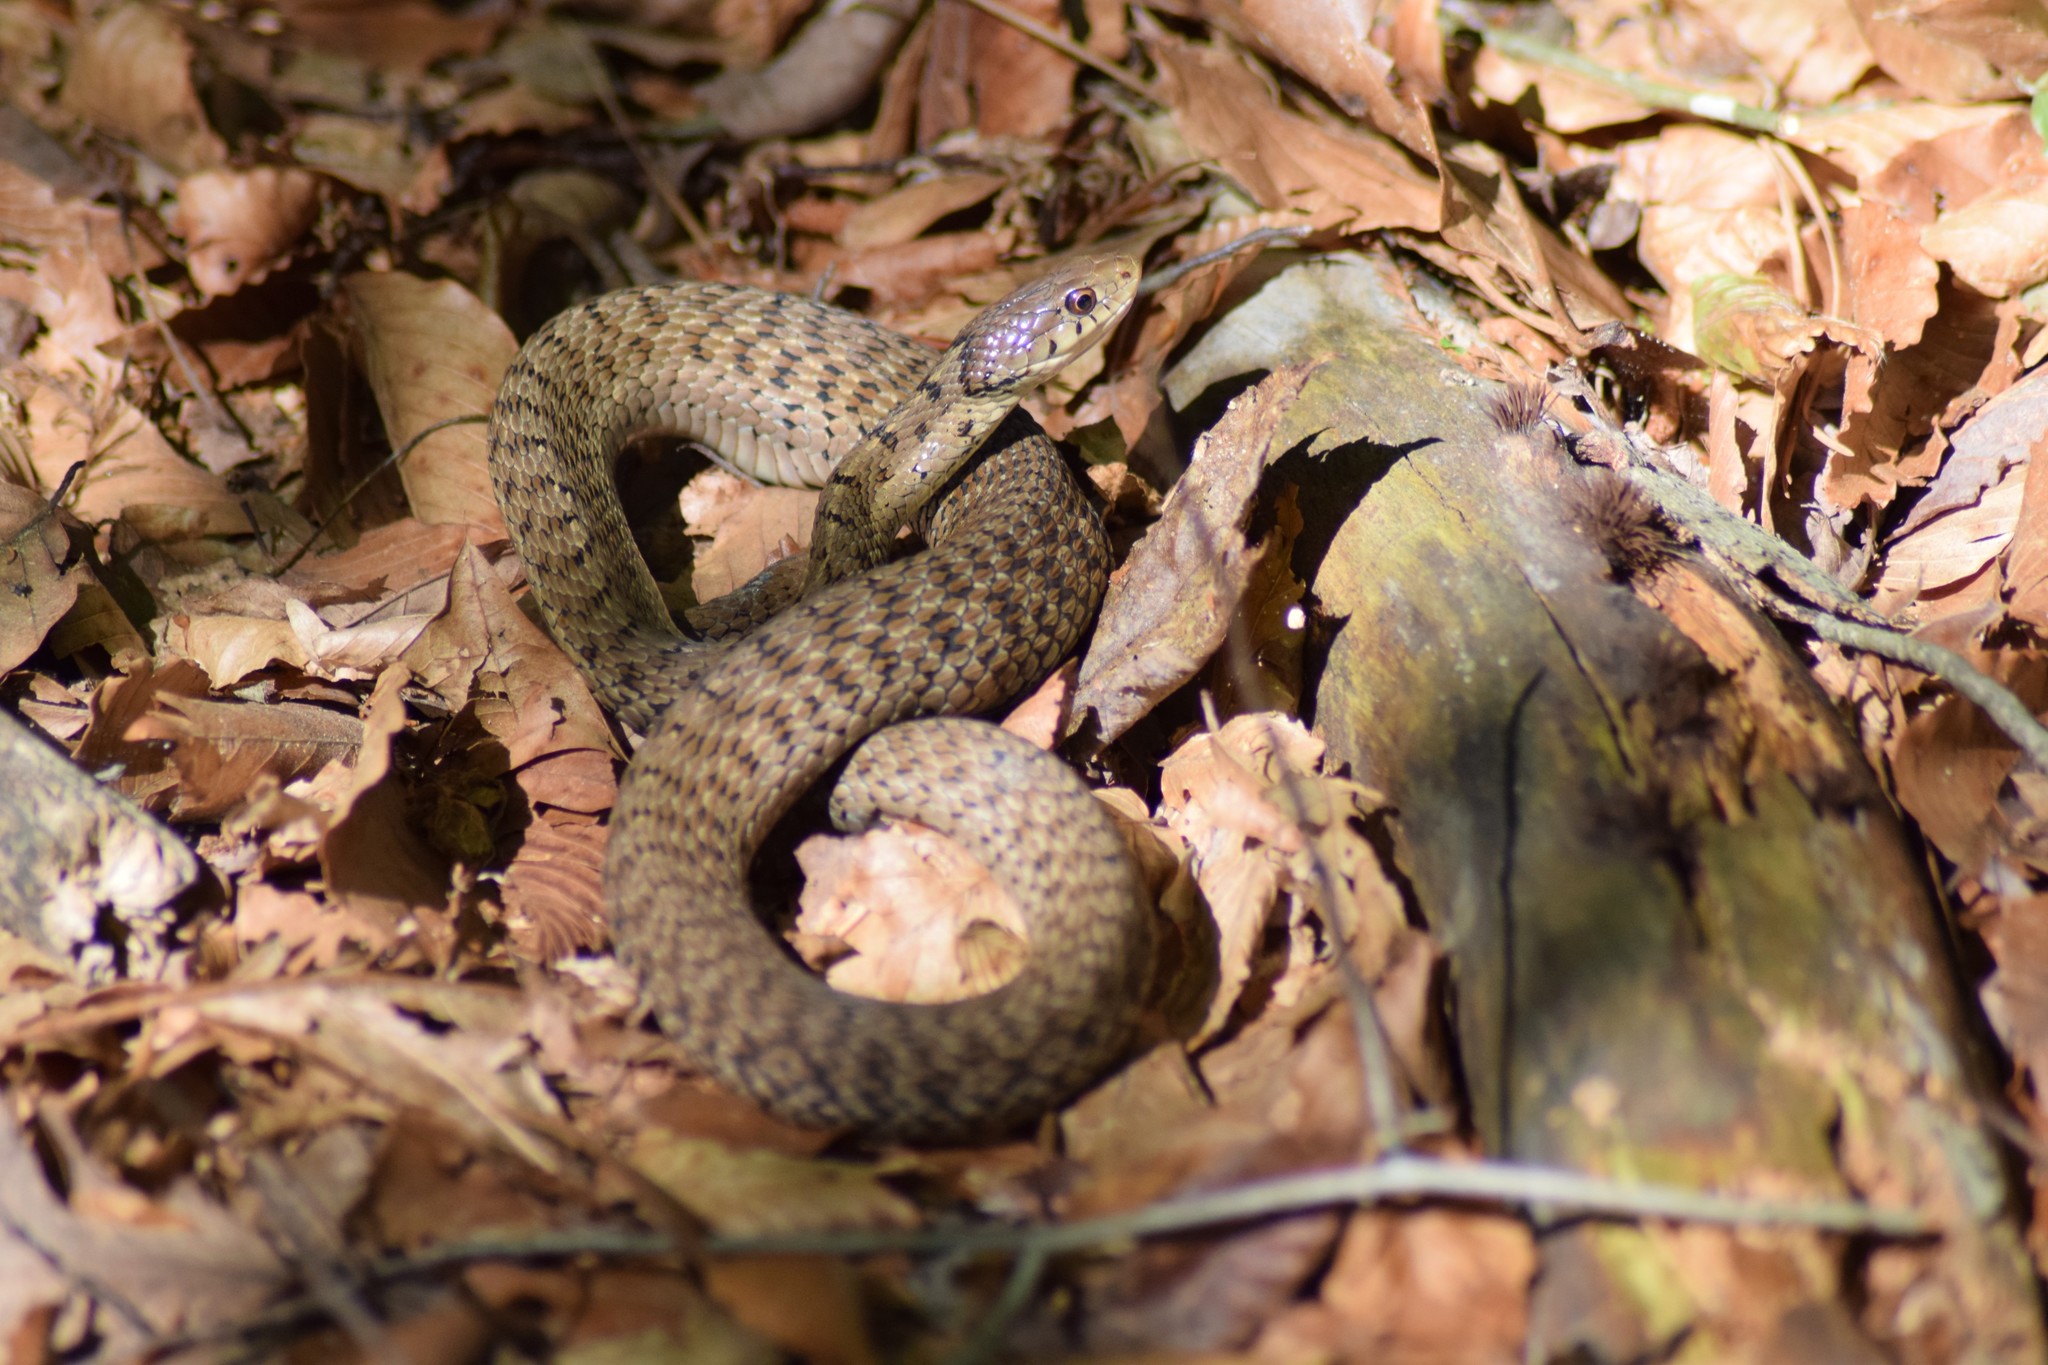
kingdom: Animalia
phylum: Chordata
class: Squamata
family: Colubridae
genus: Thamnophis
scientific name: Thamnophis sirtalis
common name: Common garter snake
